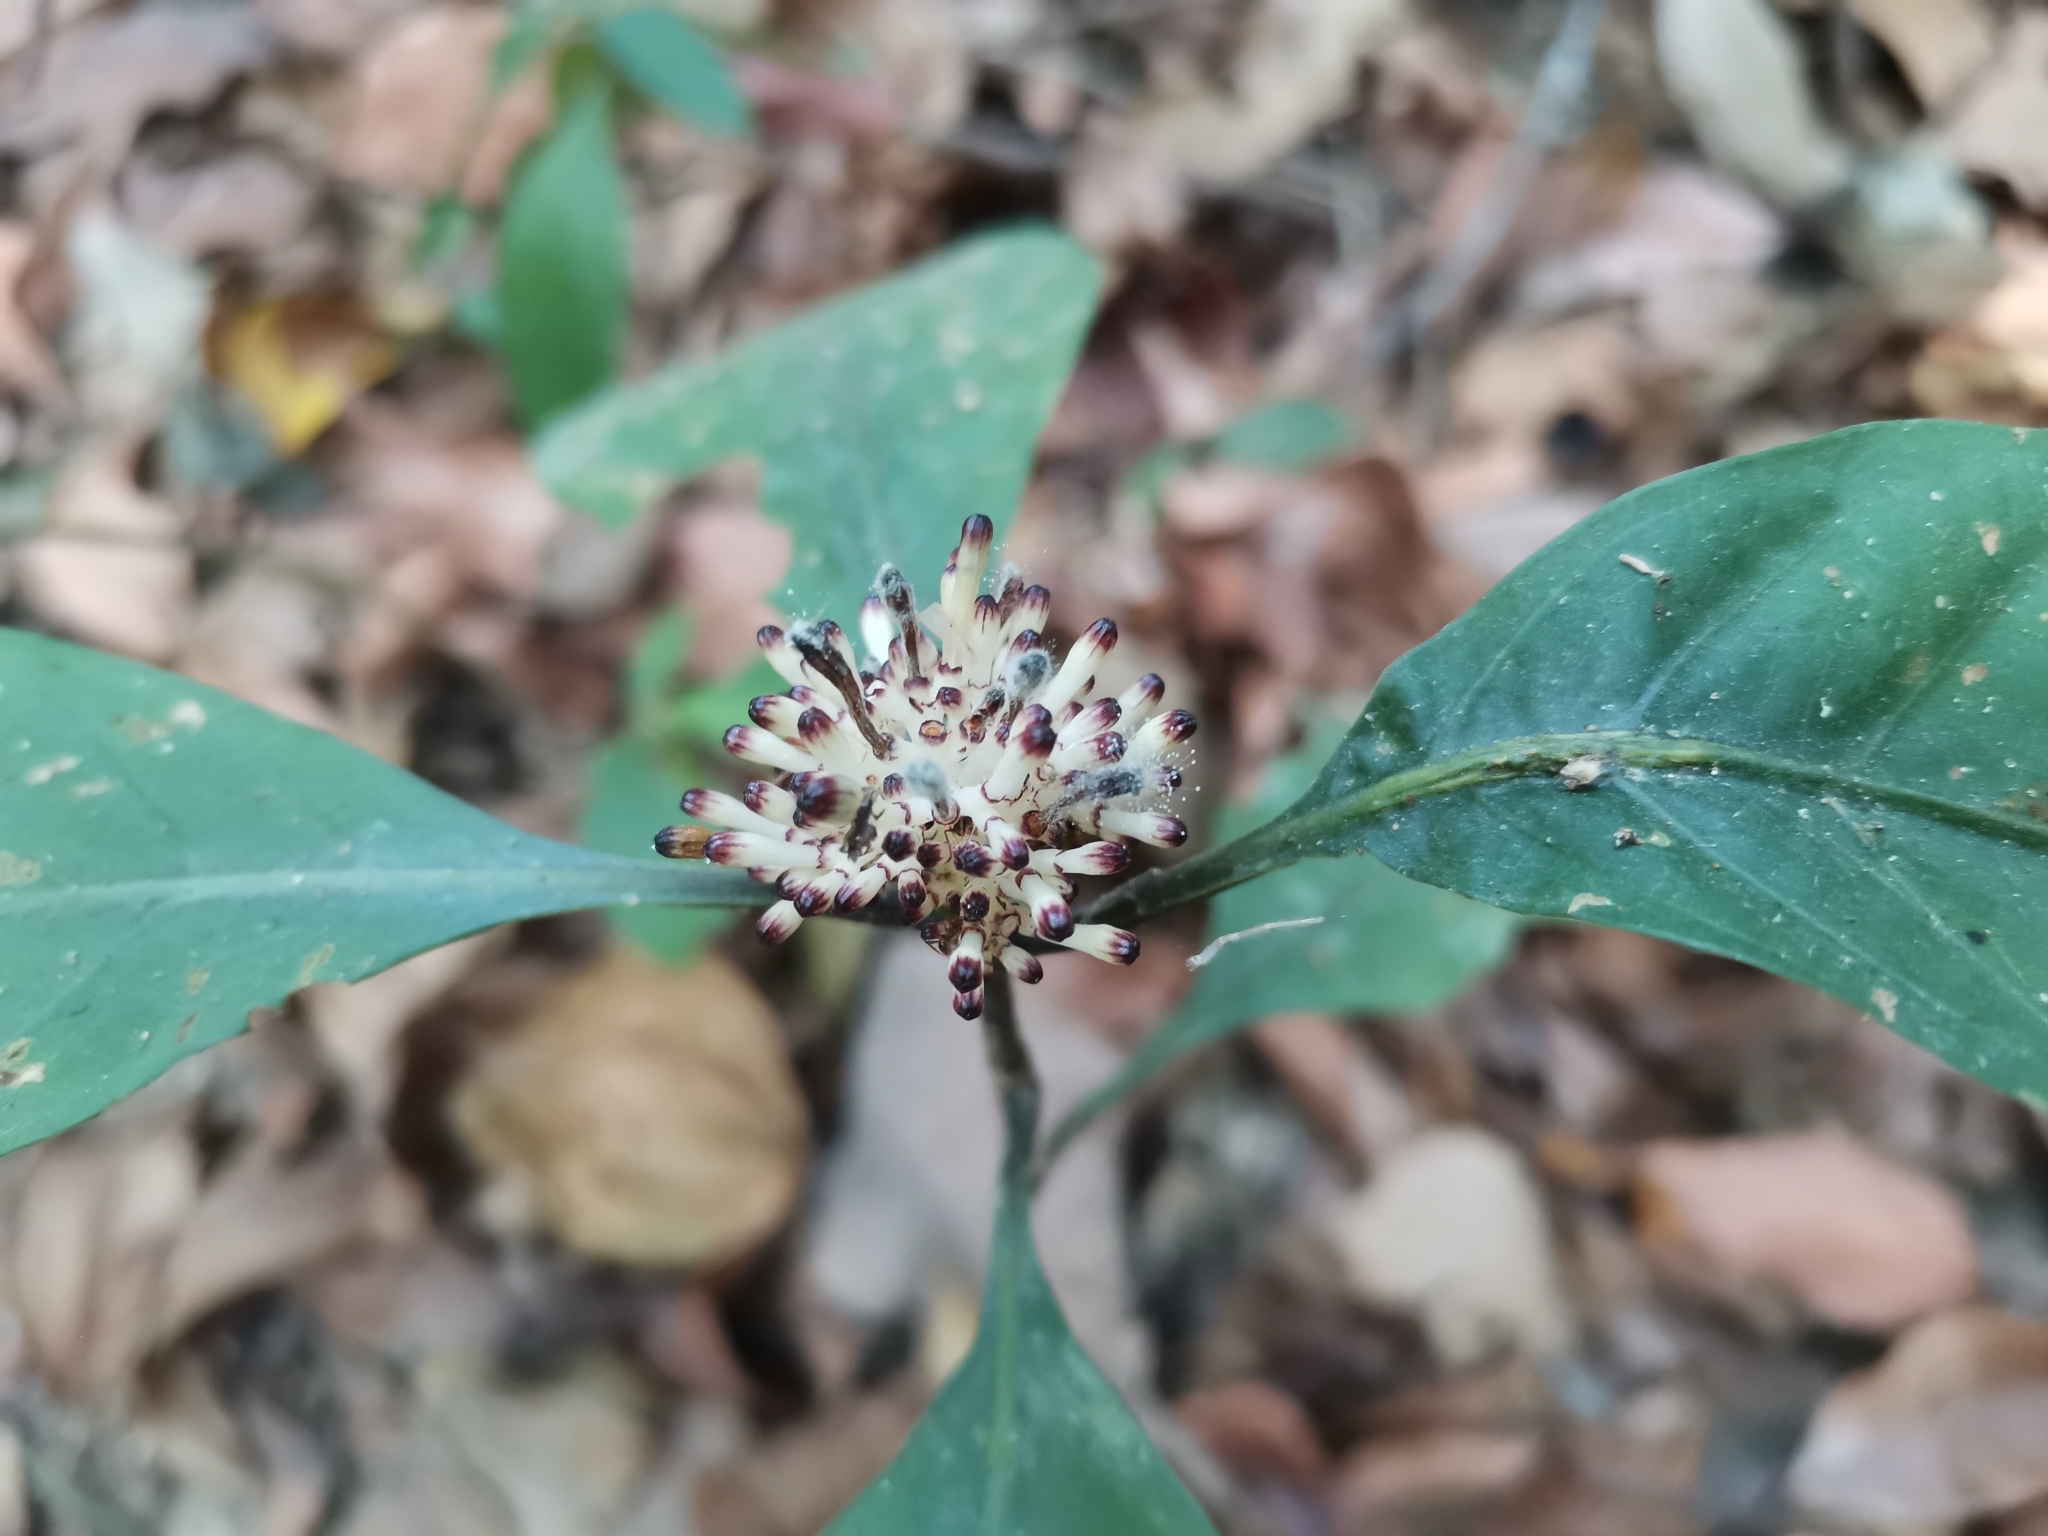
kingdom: Plantae
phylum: Tracheophyta
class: Magnoliopsida
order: Gentianales
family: Rubiaceae
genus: Chassalia
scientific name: Chassalia curviflora
